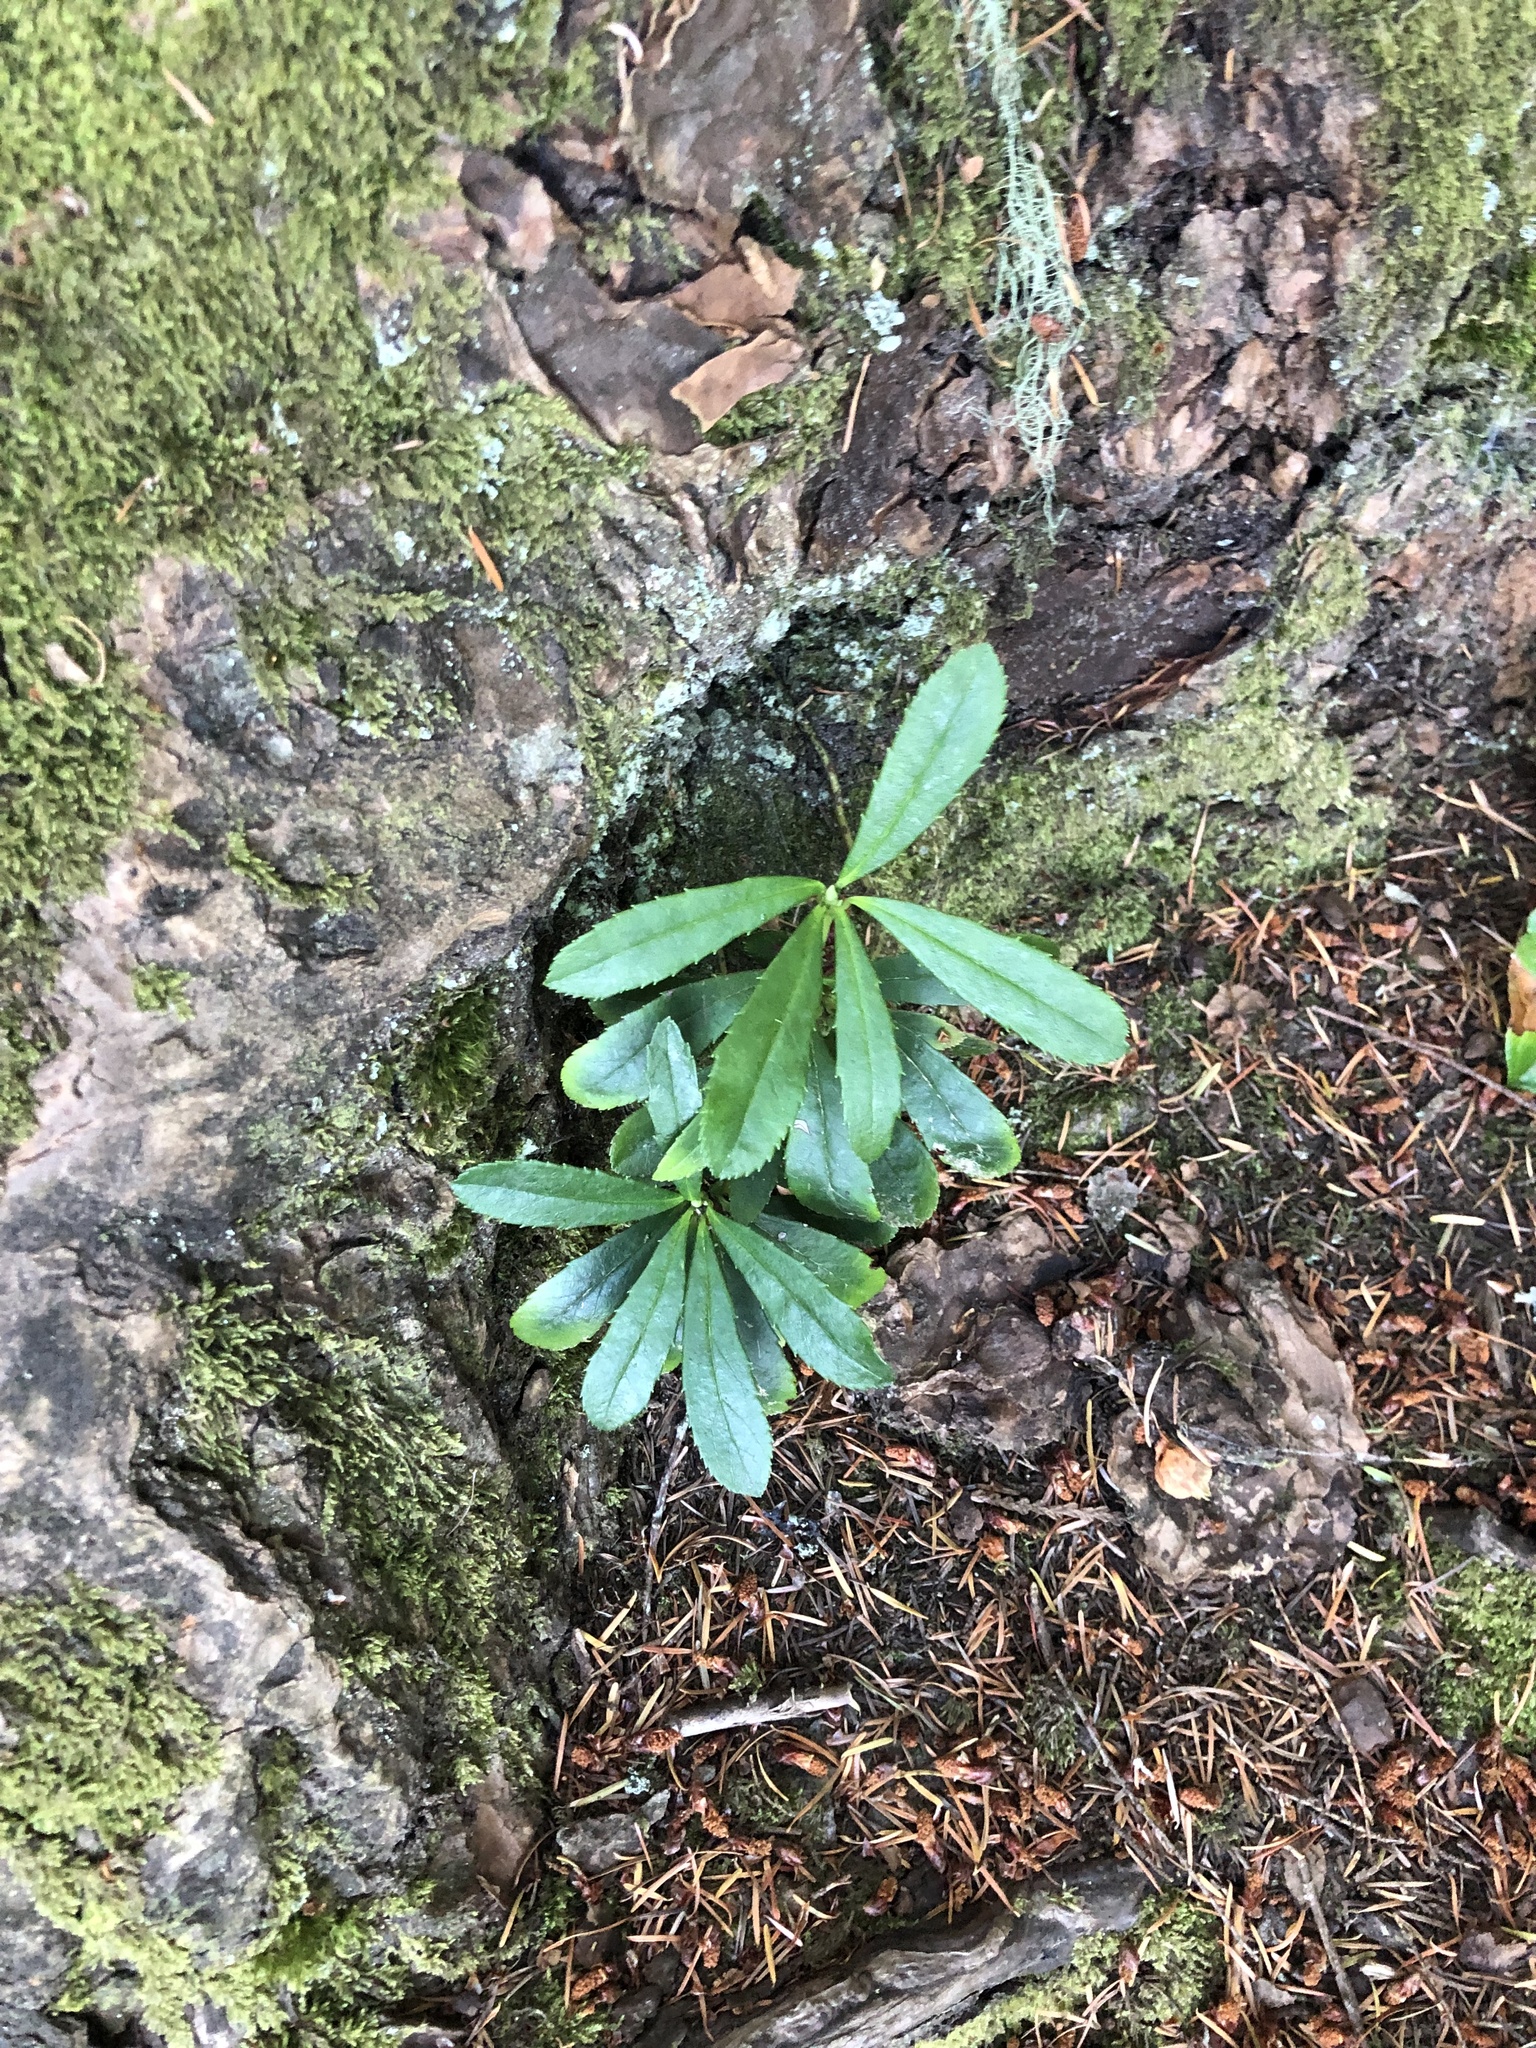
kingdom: Plantae
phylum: Tracheophyta
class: Magnoliopsida
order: Ericales
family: Ericaceae
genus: Chimaphila
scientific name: Chimaphila umbellata
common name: Pipsissewa
